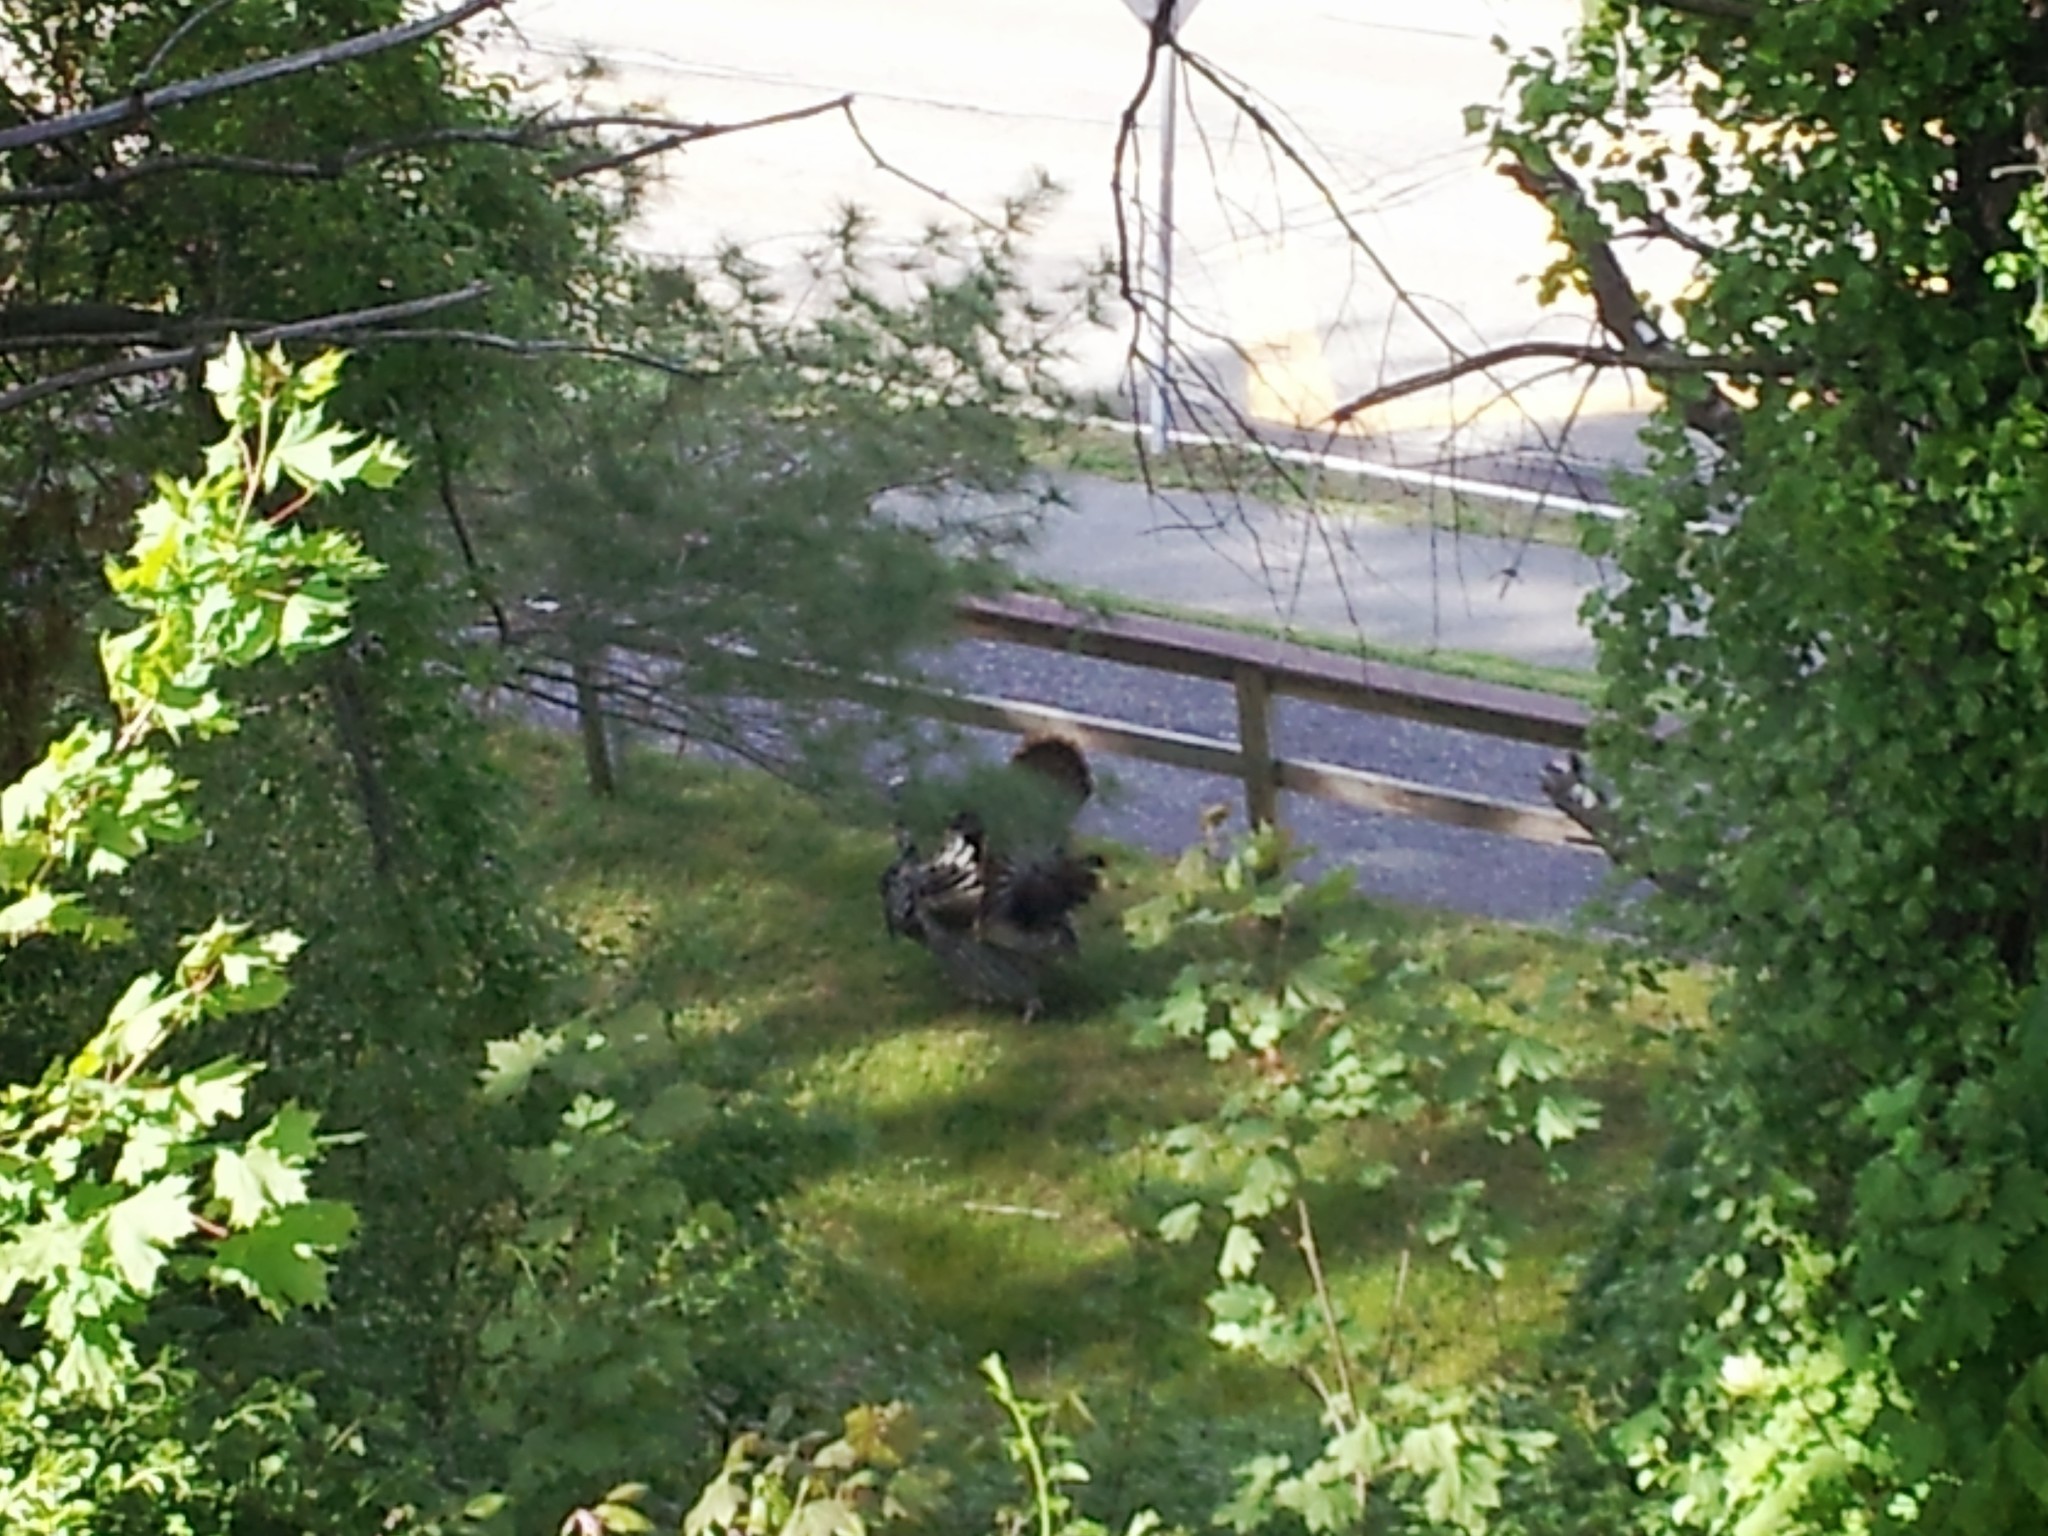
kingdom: Animalia
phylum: Chordata
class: Aves
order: Galliformes
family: Phasianidae
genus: Meleagris
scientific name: Meleagris gallopavo
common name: Wild turkey
